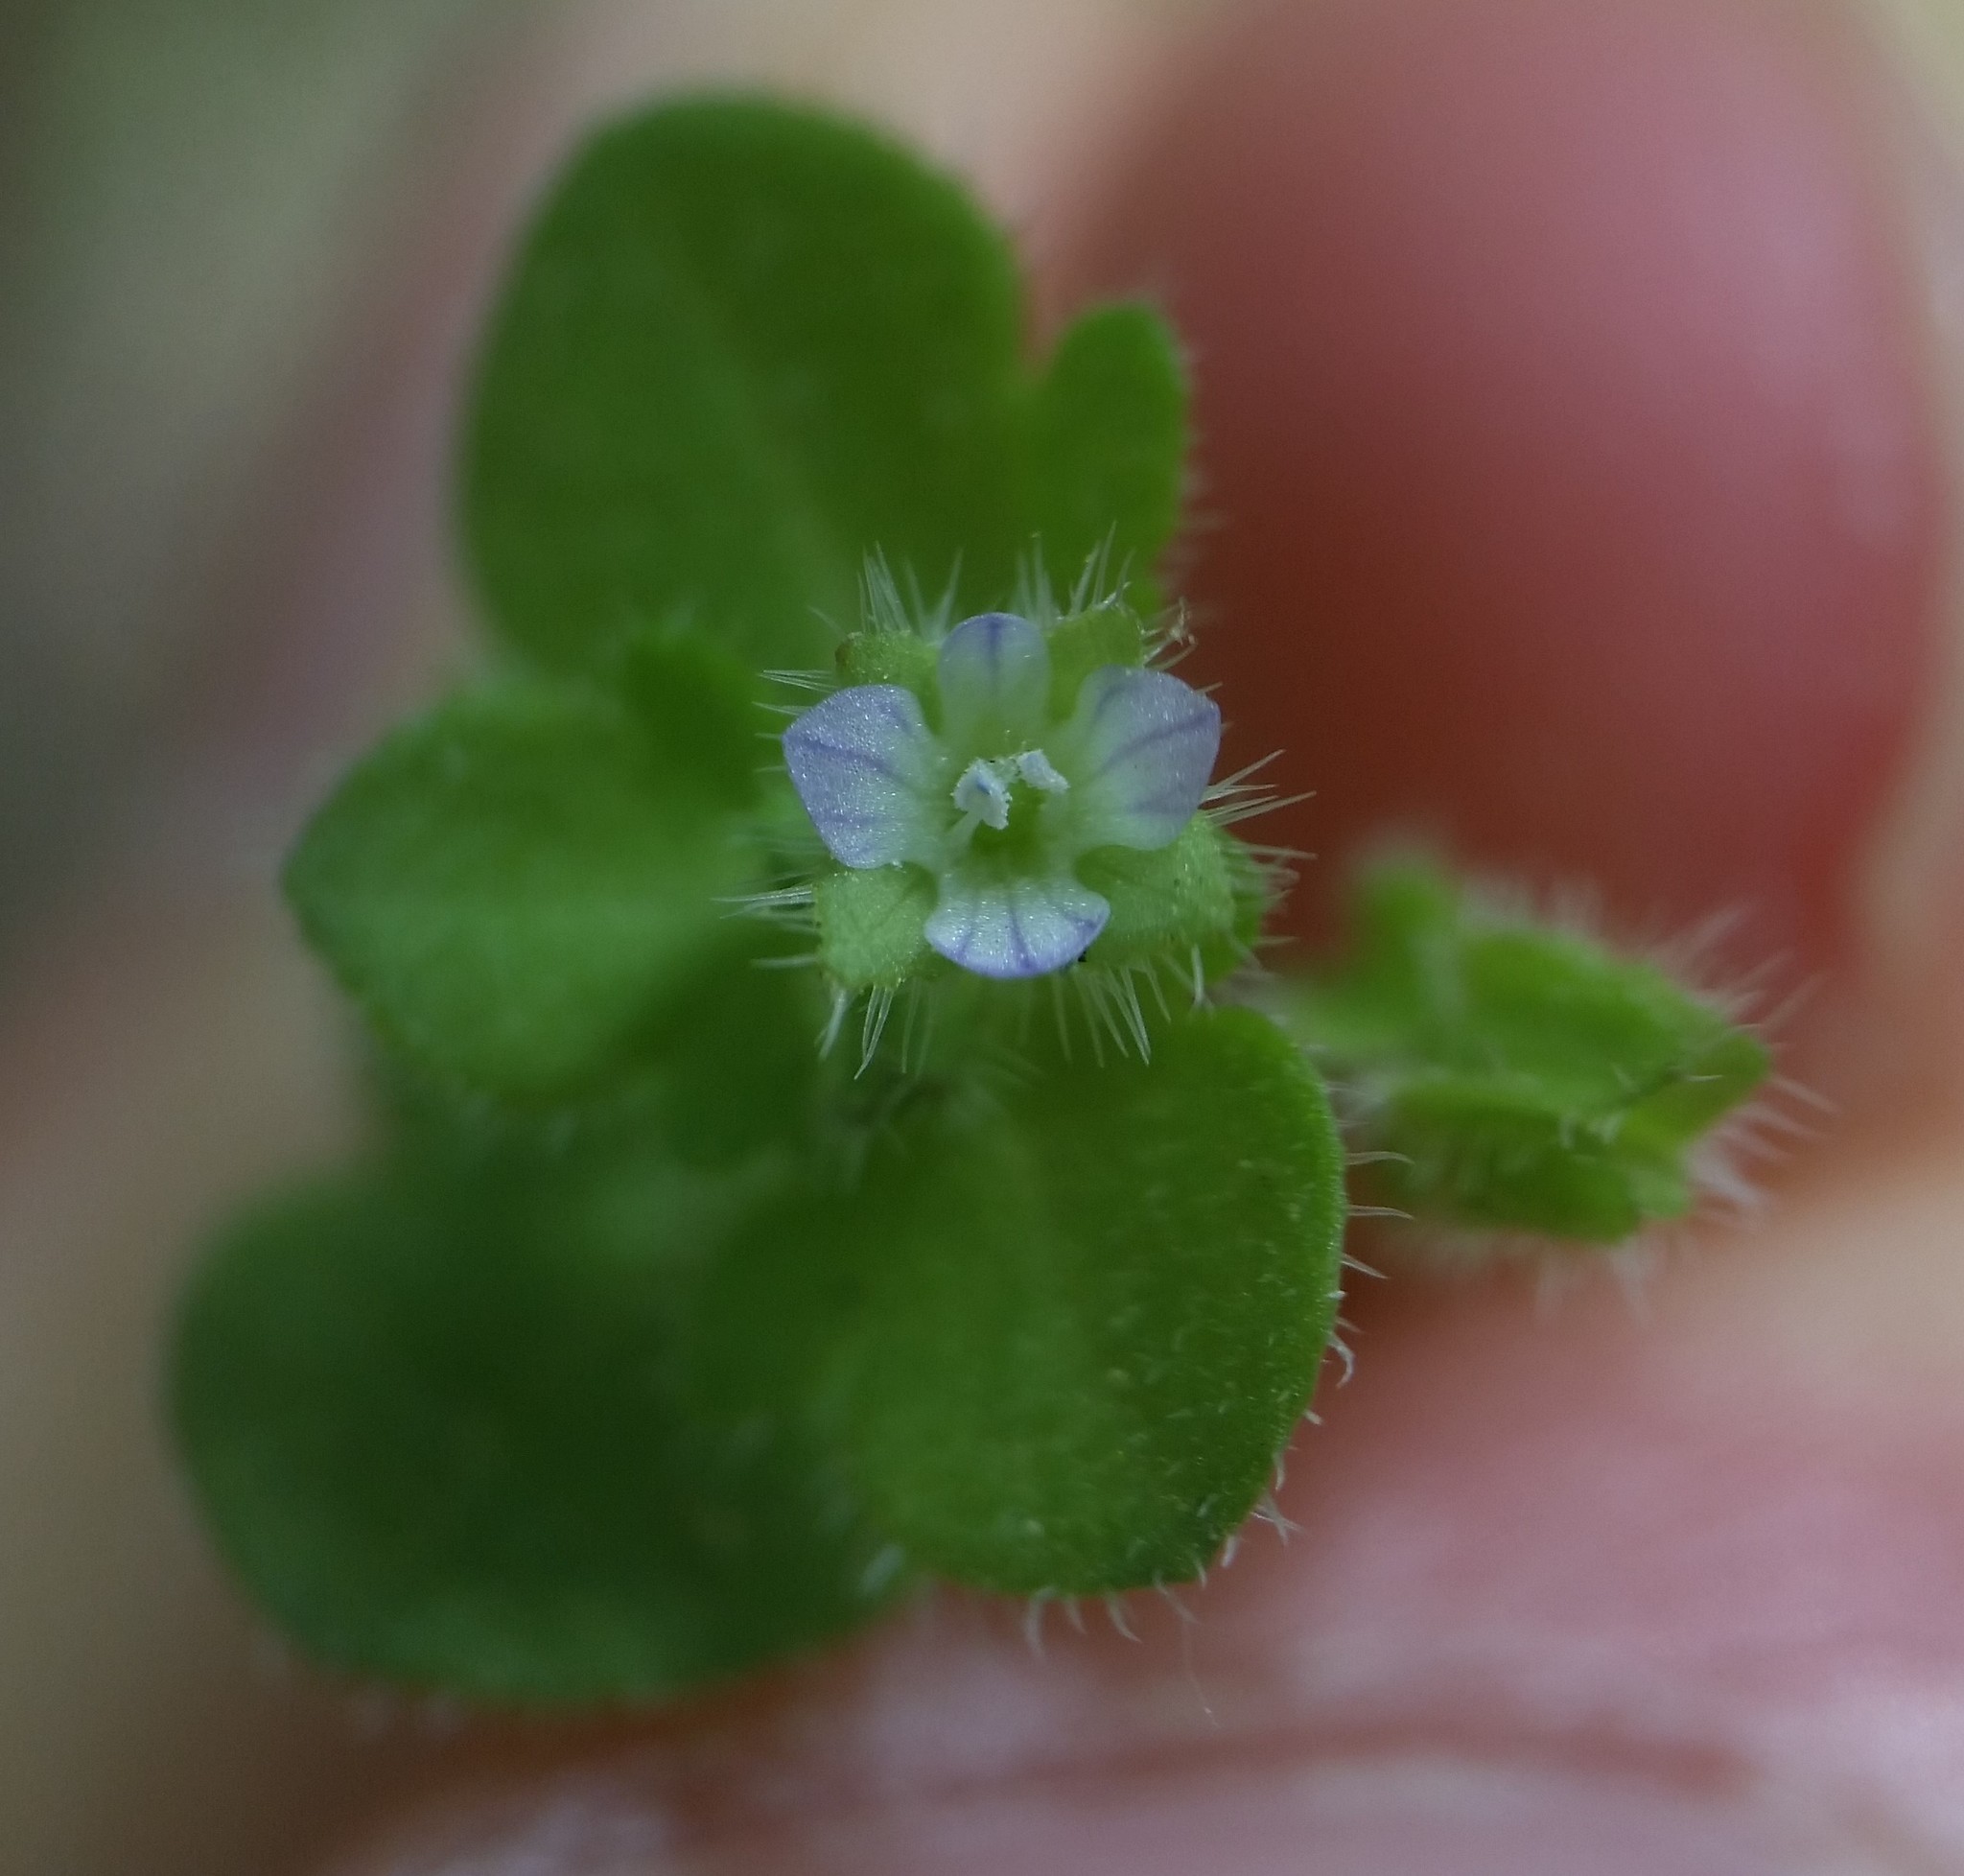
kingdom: Plantae
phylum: Tracheophyta
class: Magnoliopsida
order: Lamiales
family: Plantaginaceae
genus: Veronica
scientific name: Veronica sublobata
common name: False ivy-leaved speedwell
